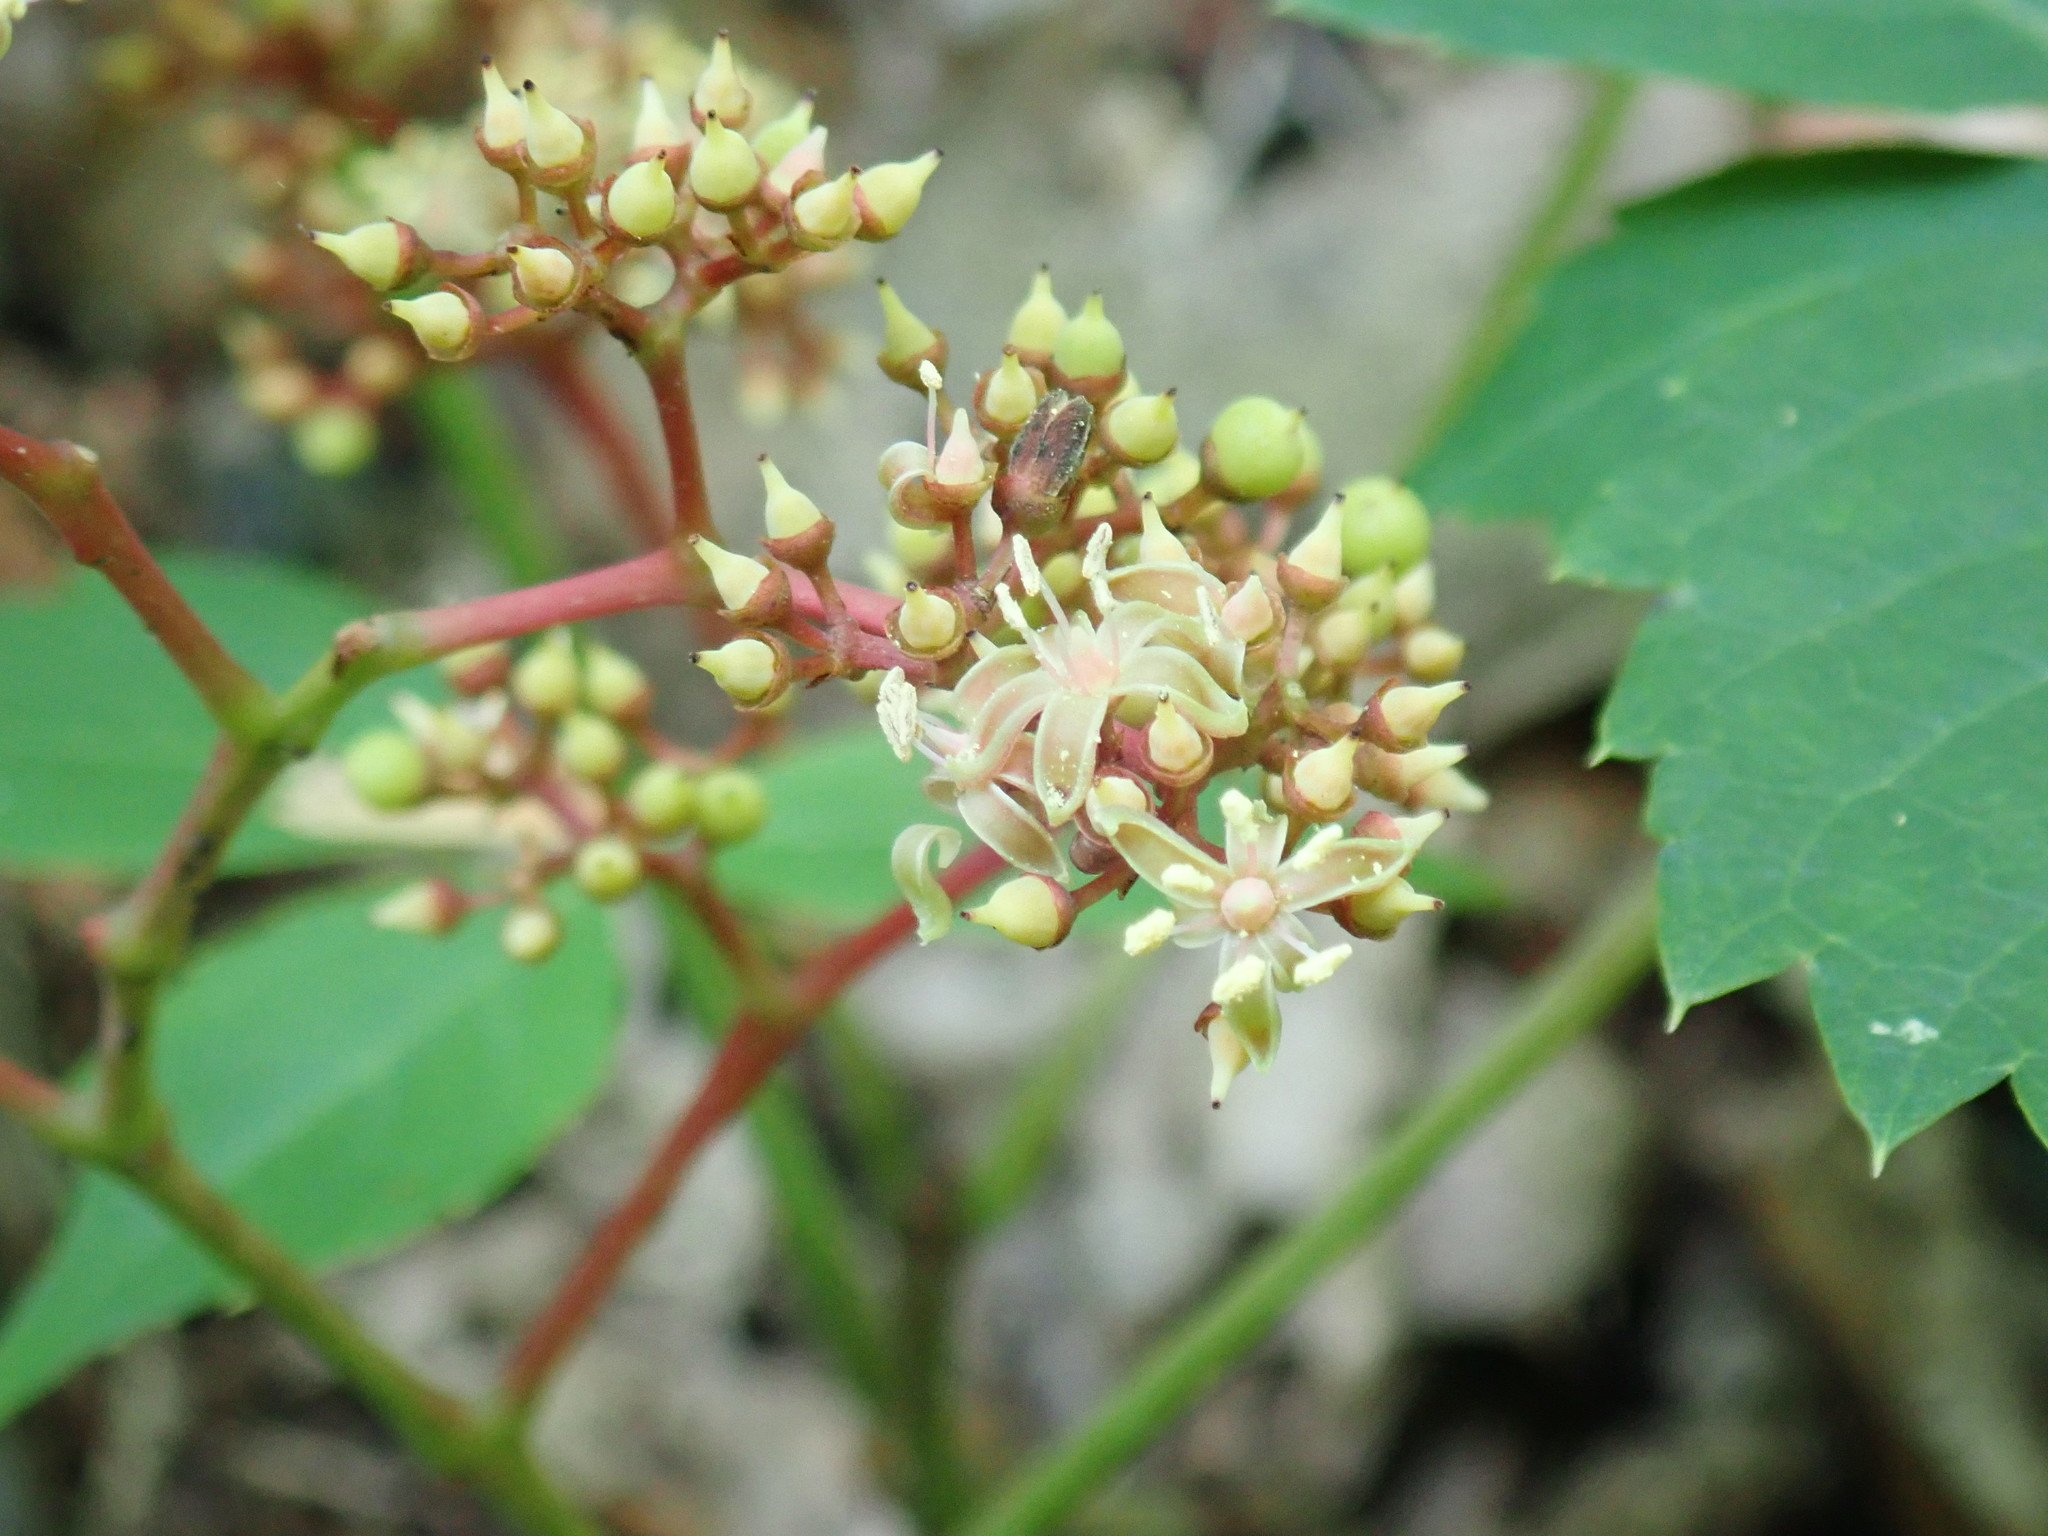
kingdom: Plantae
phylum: Tracheophyta
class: Magnoliopsida
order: Vitales
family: Vitaceae
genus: Parthenocissus
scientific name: Parthenocissus quinquefolia
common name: Virginia-creeper
